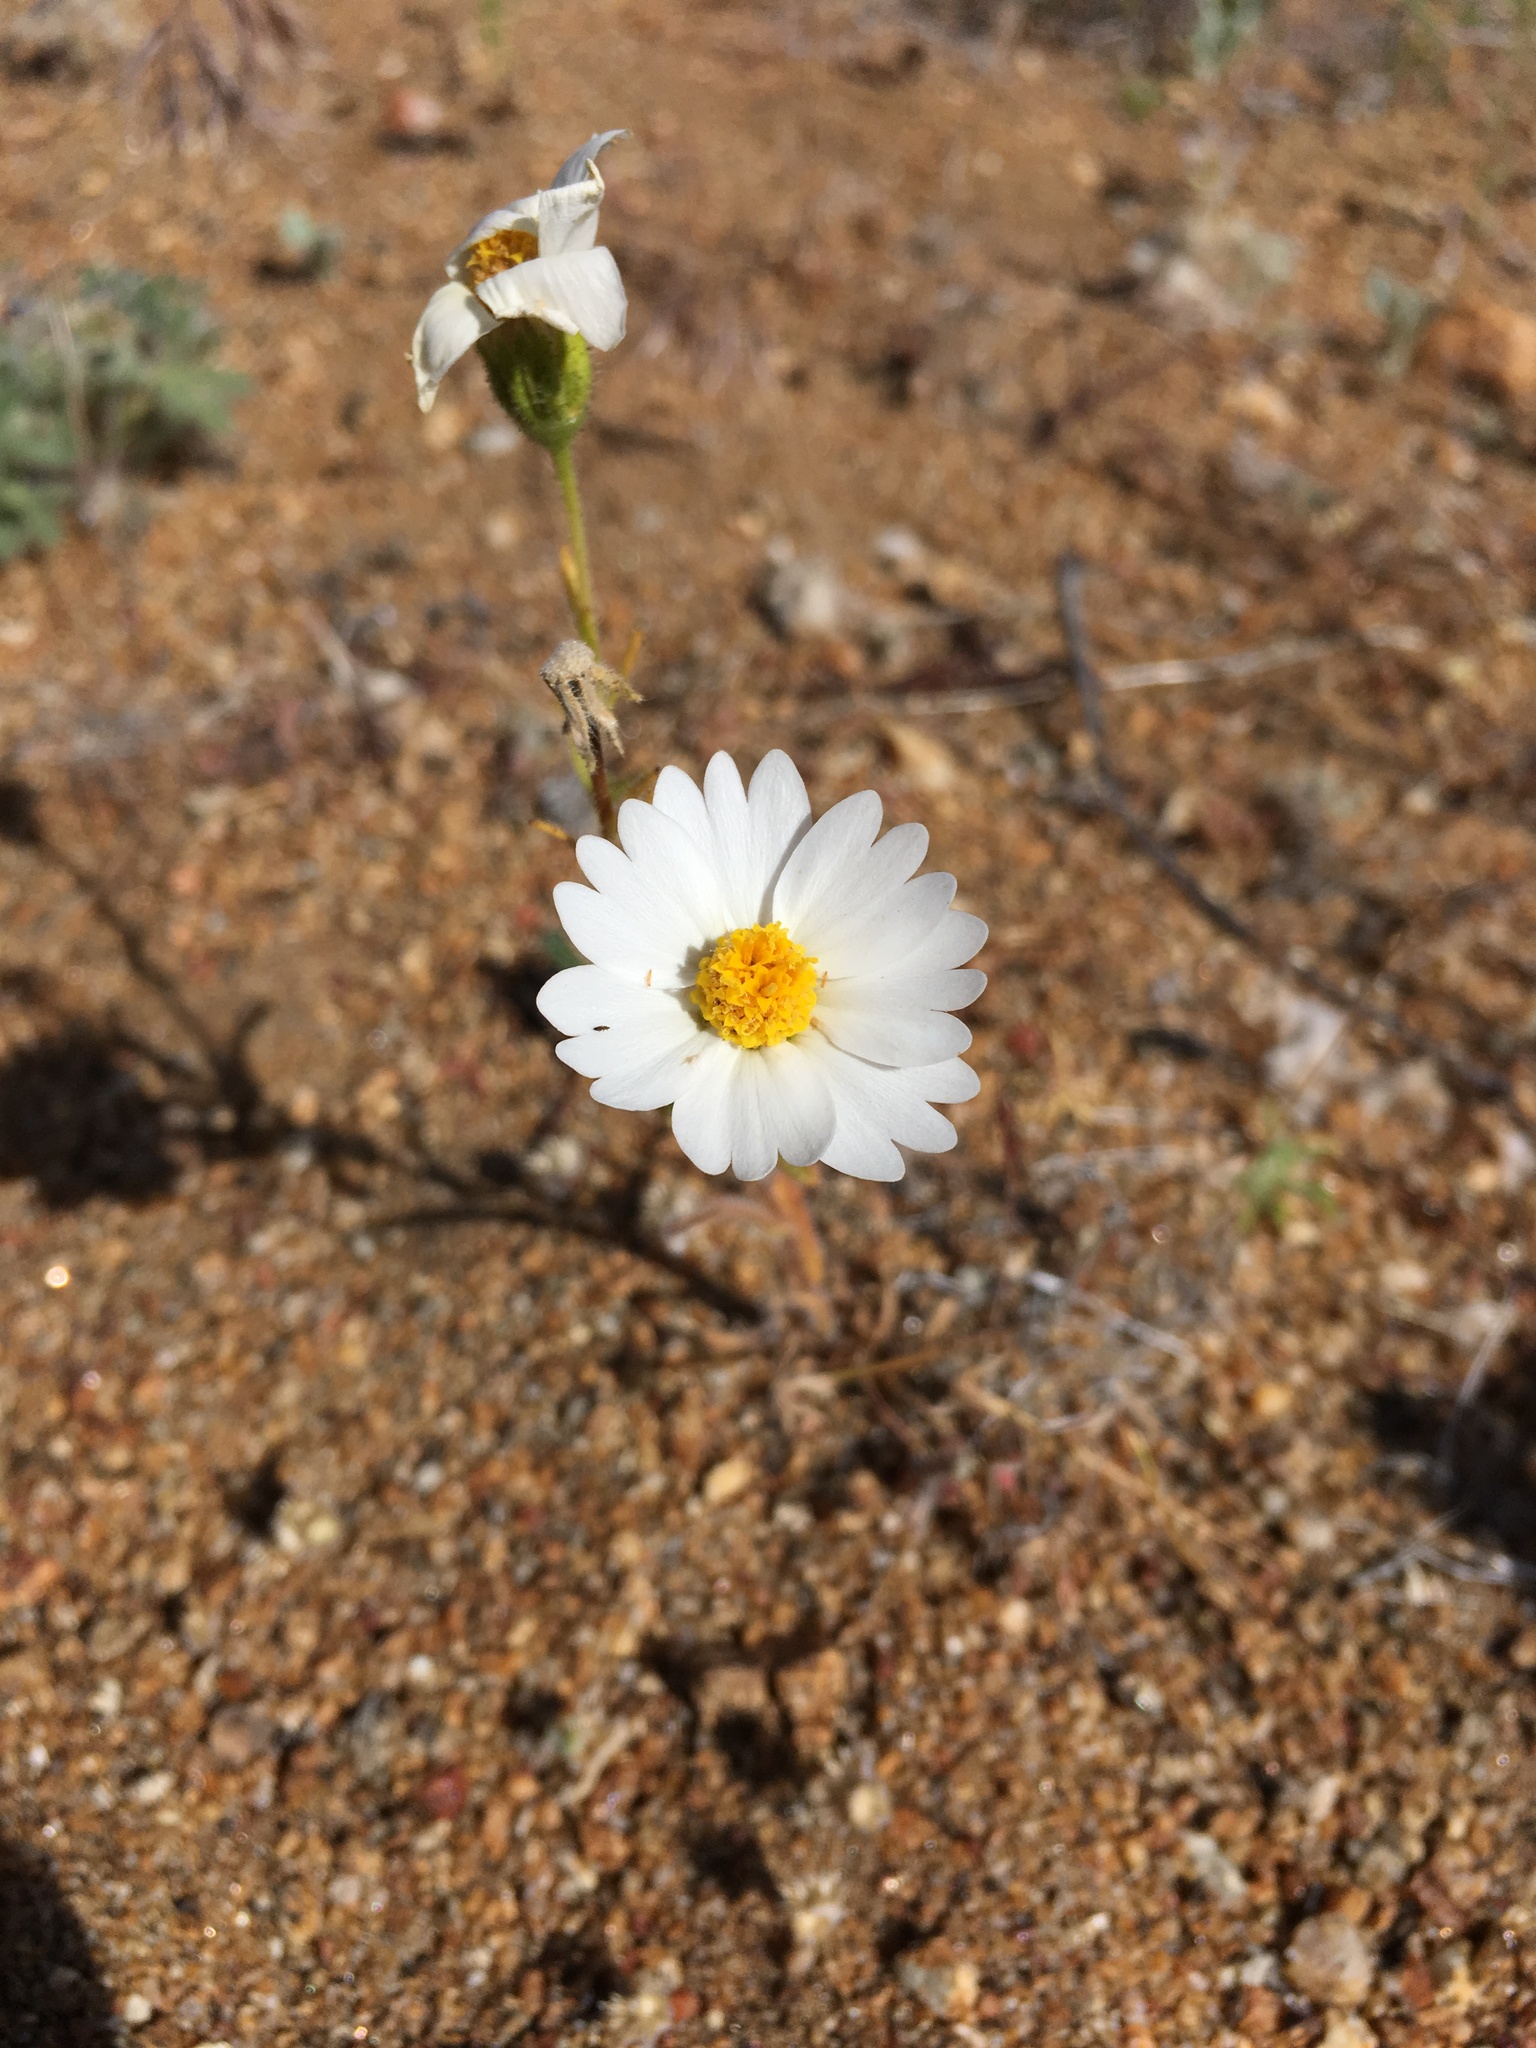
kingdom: Plantae
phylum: Tracheophyta
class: Magnoliopsida
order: Asterales
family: Asteraceae
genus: Layia
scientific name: Layia glandulosa
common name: White layia
